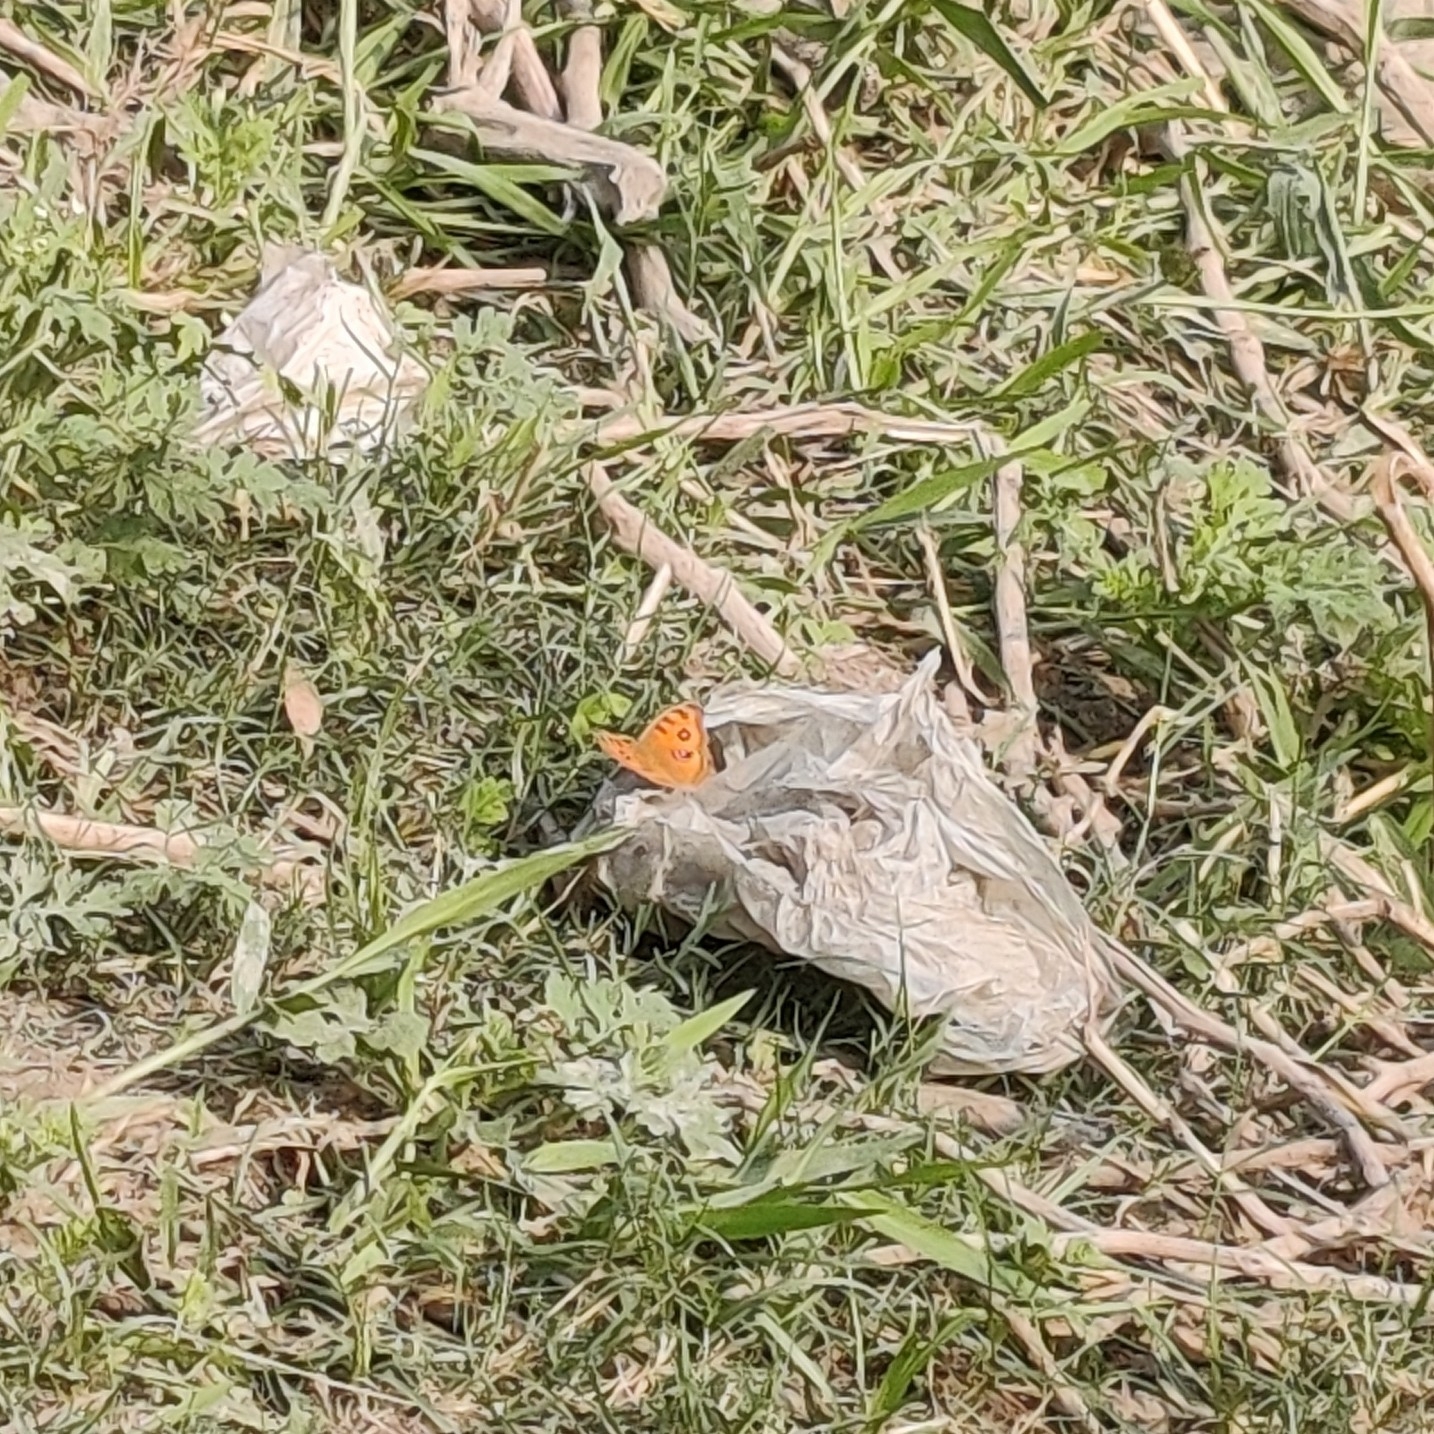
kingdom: Animalia
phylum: Arthropoda
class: Insecta
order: Lepidoptera
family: Nymphalidae
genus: Junonia
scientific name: Junonia almana
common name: Peacock pansy
